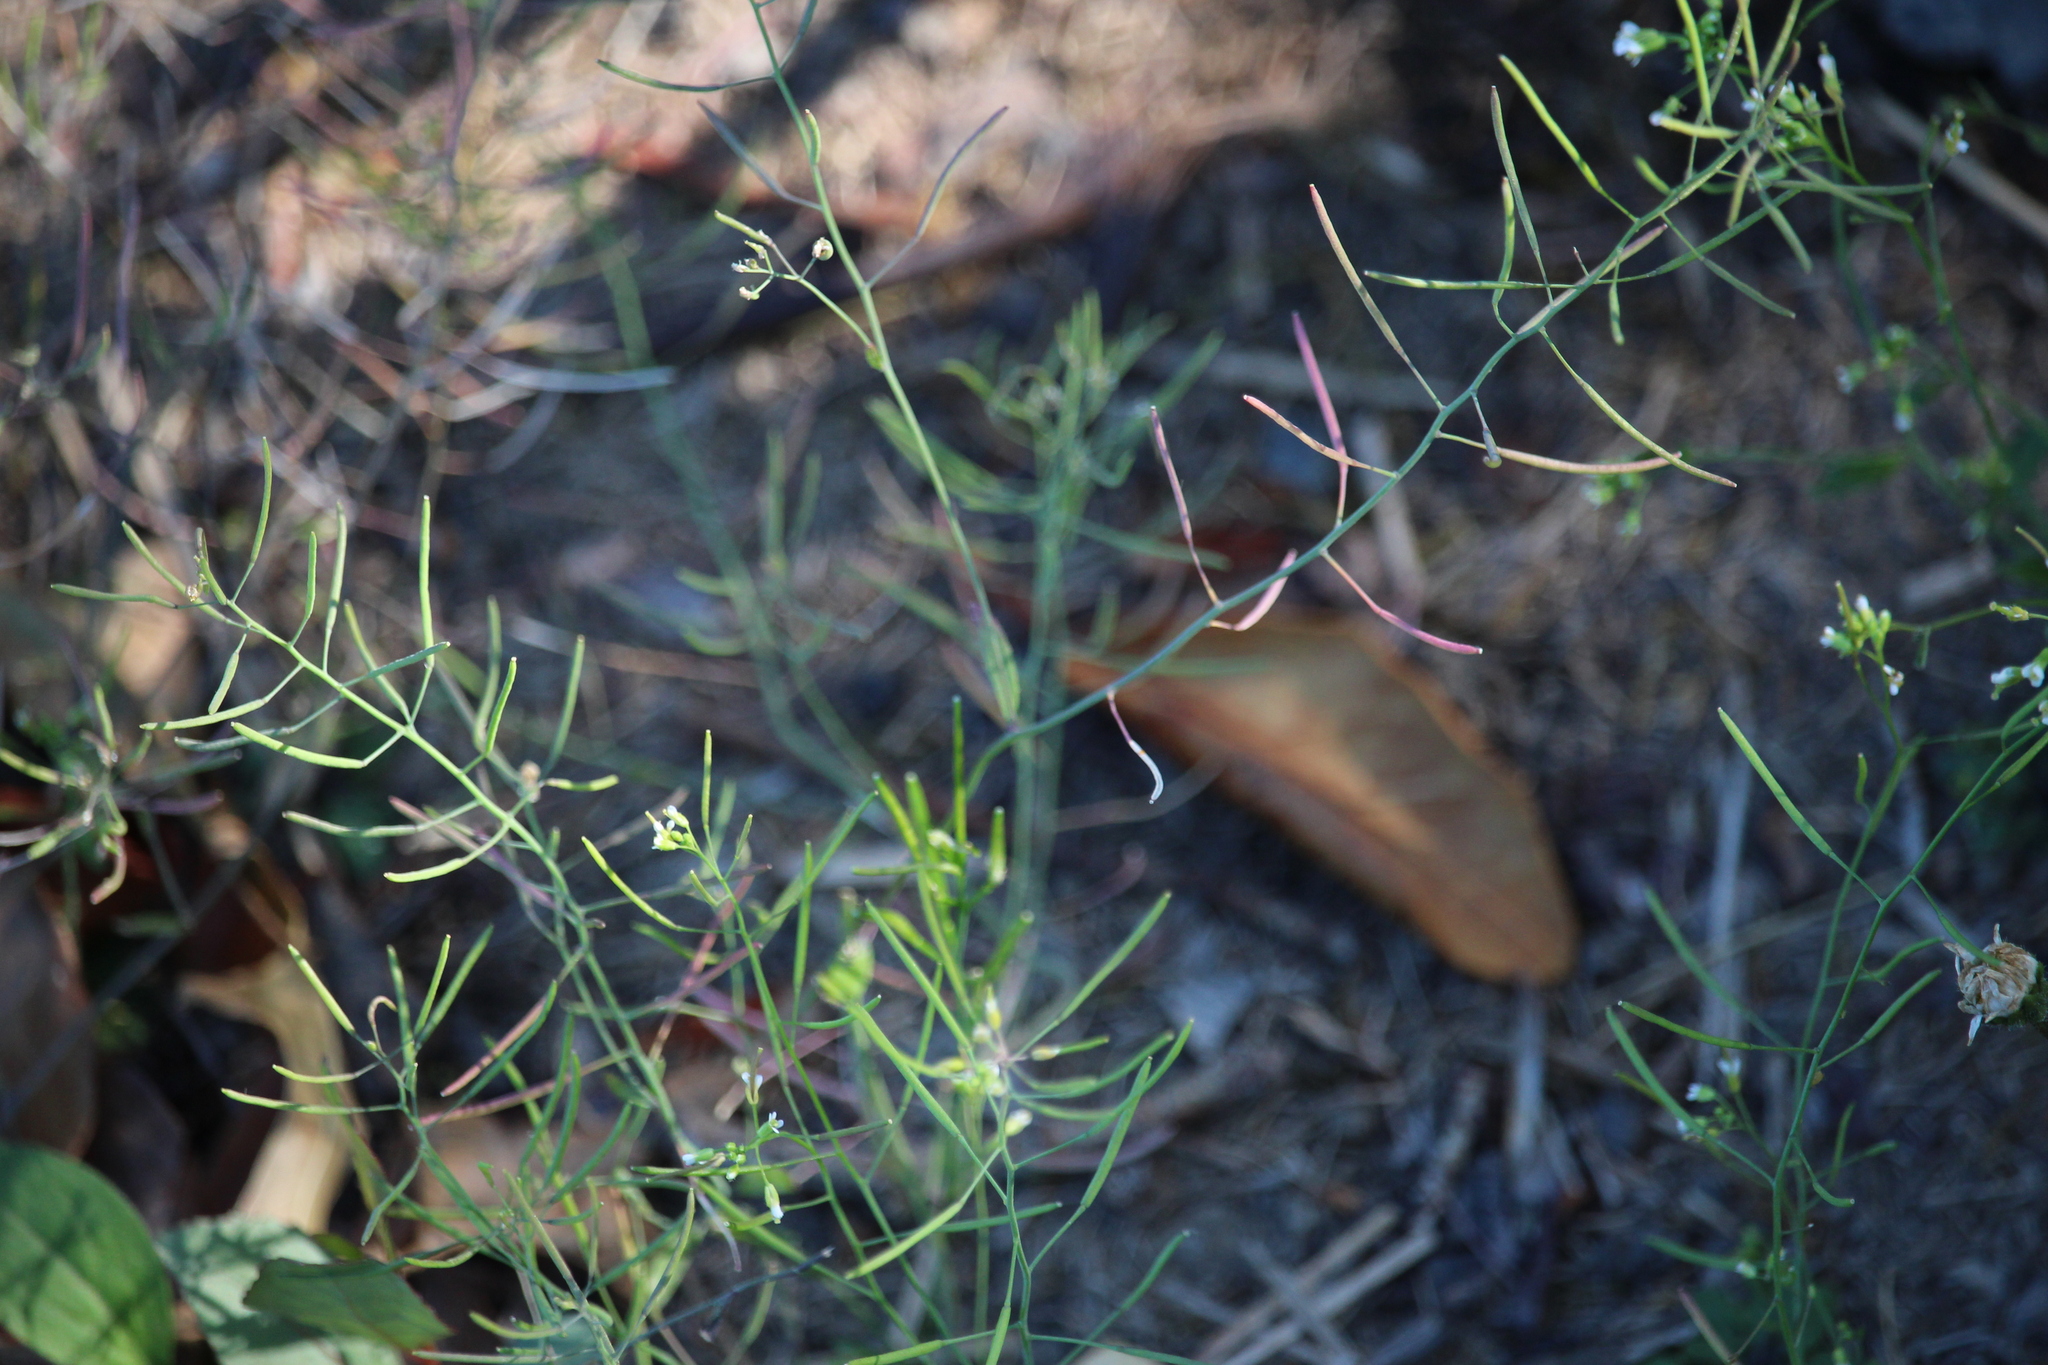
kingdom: Plantae
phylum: Tracheophyta
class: Magnoliopsida
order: Brassicales
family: Brassicaceae
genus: Arabidopsis
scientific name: Arabidopsis thaliana
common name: Thale cress
